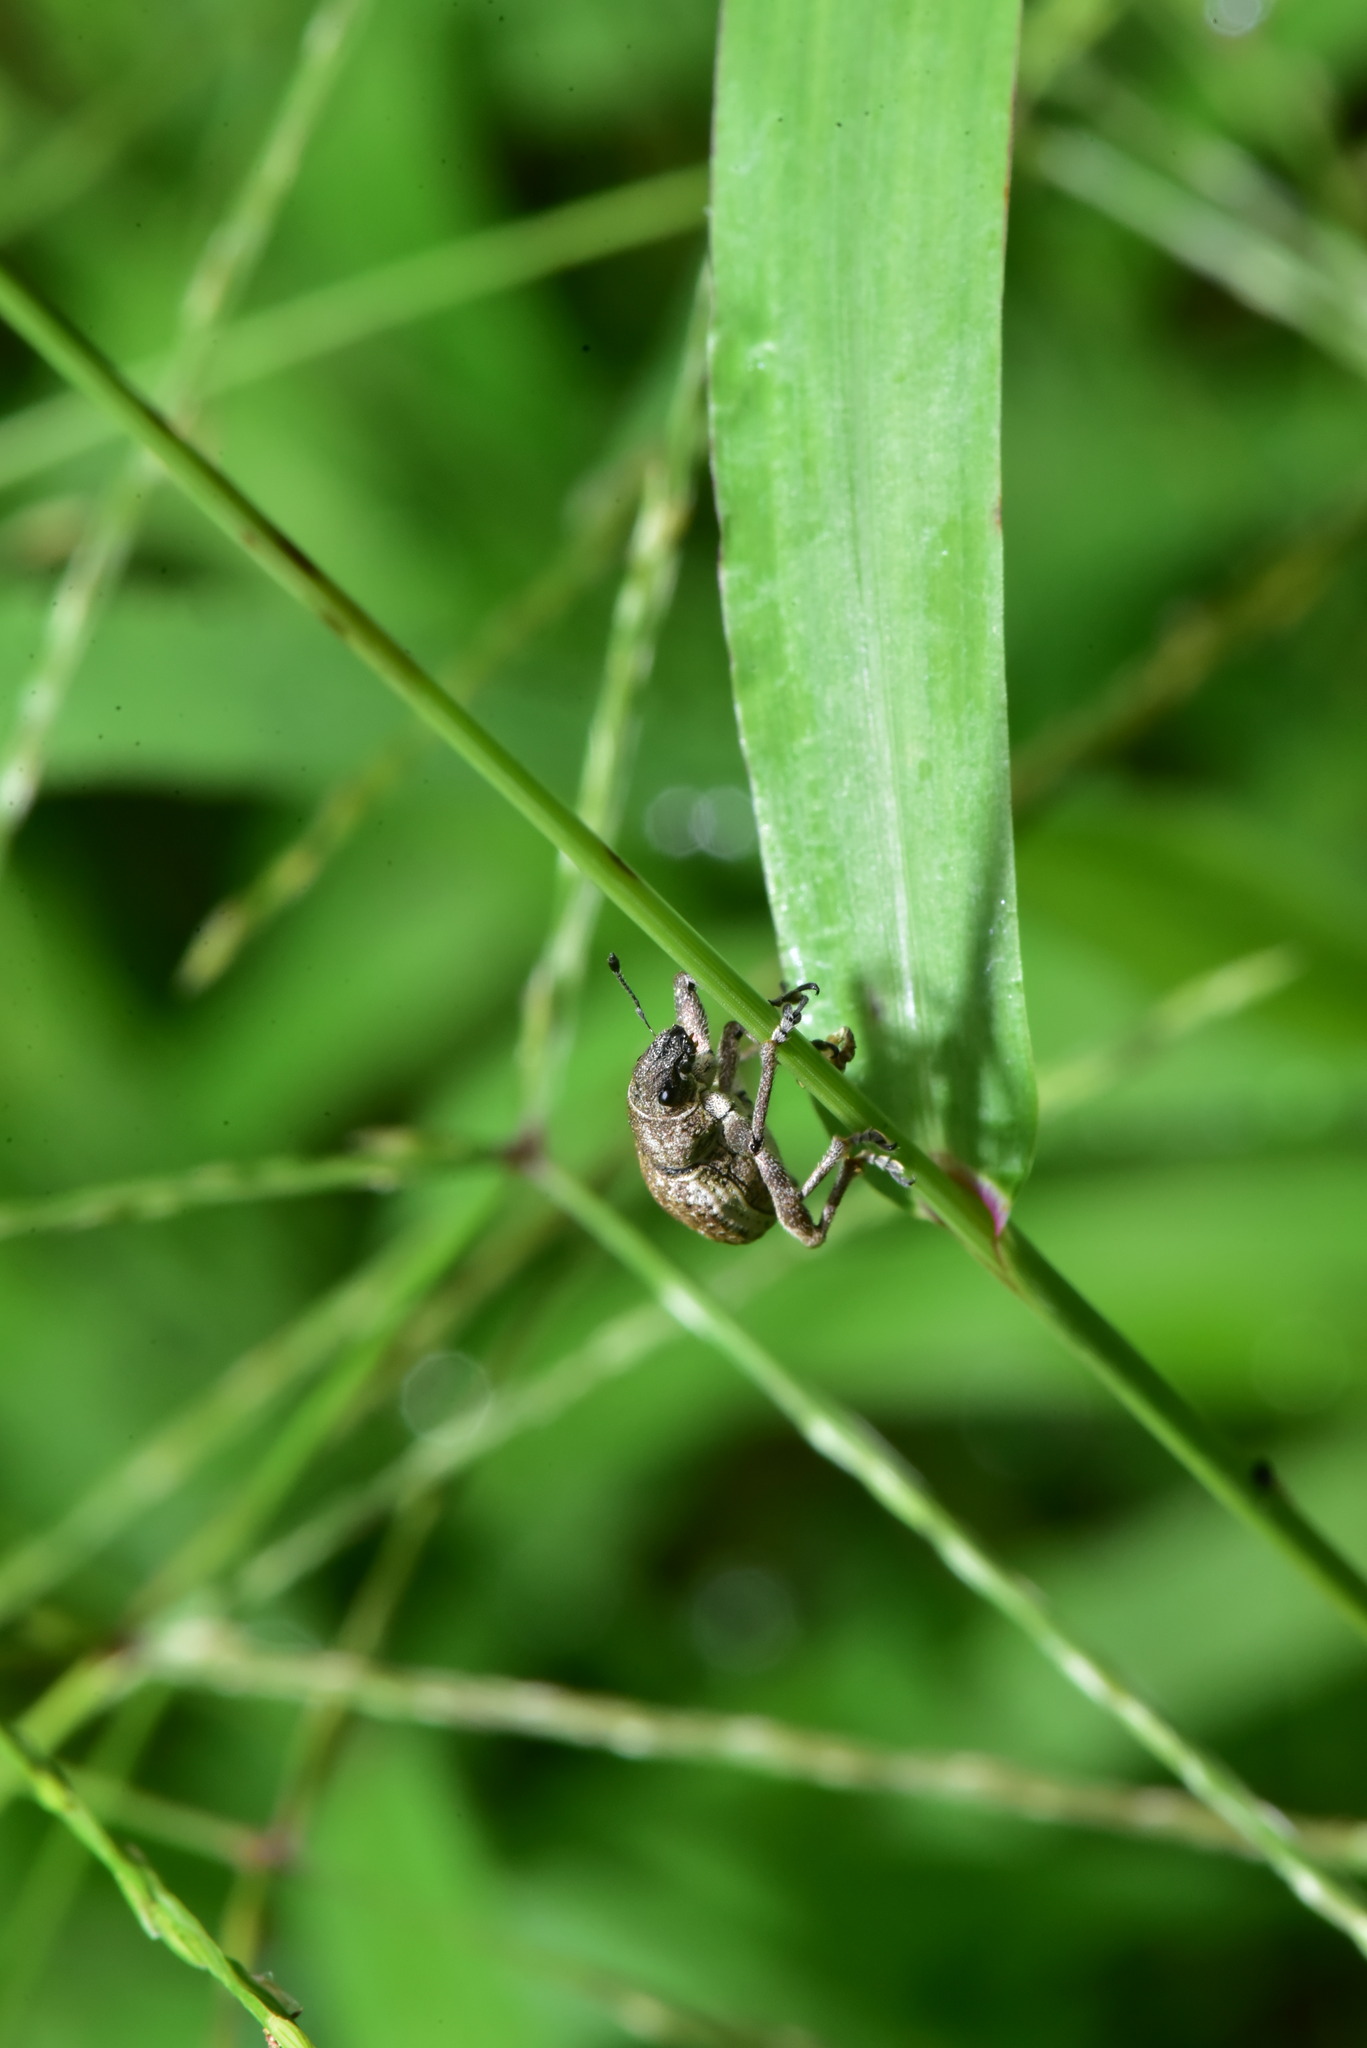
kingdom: Animalia
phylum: Arthropoda
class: Insecta
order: Coleoptera
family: Curculionidae
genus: Sympiezomias
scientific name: Sympiezomias cribricollis
